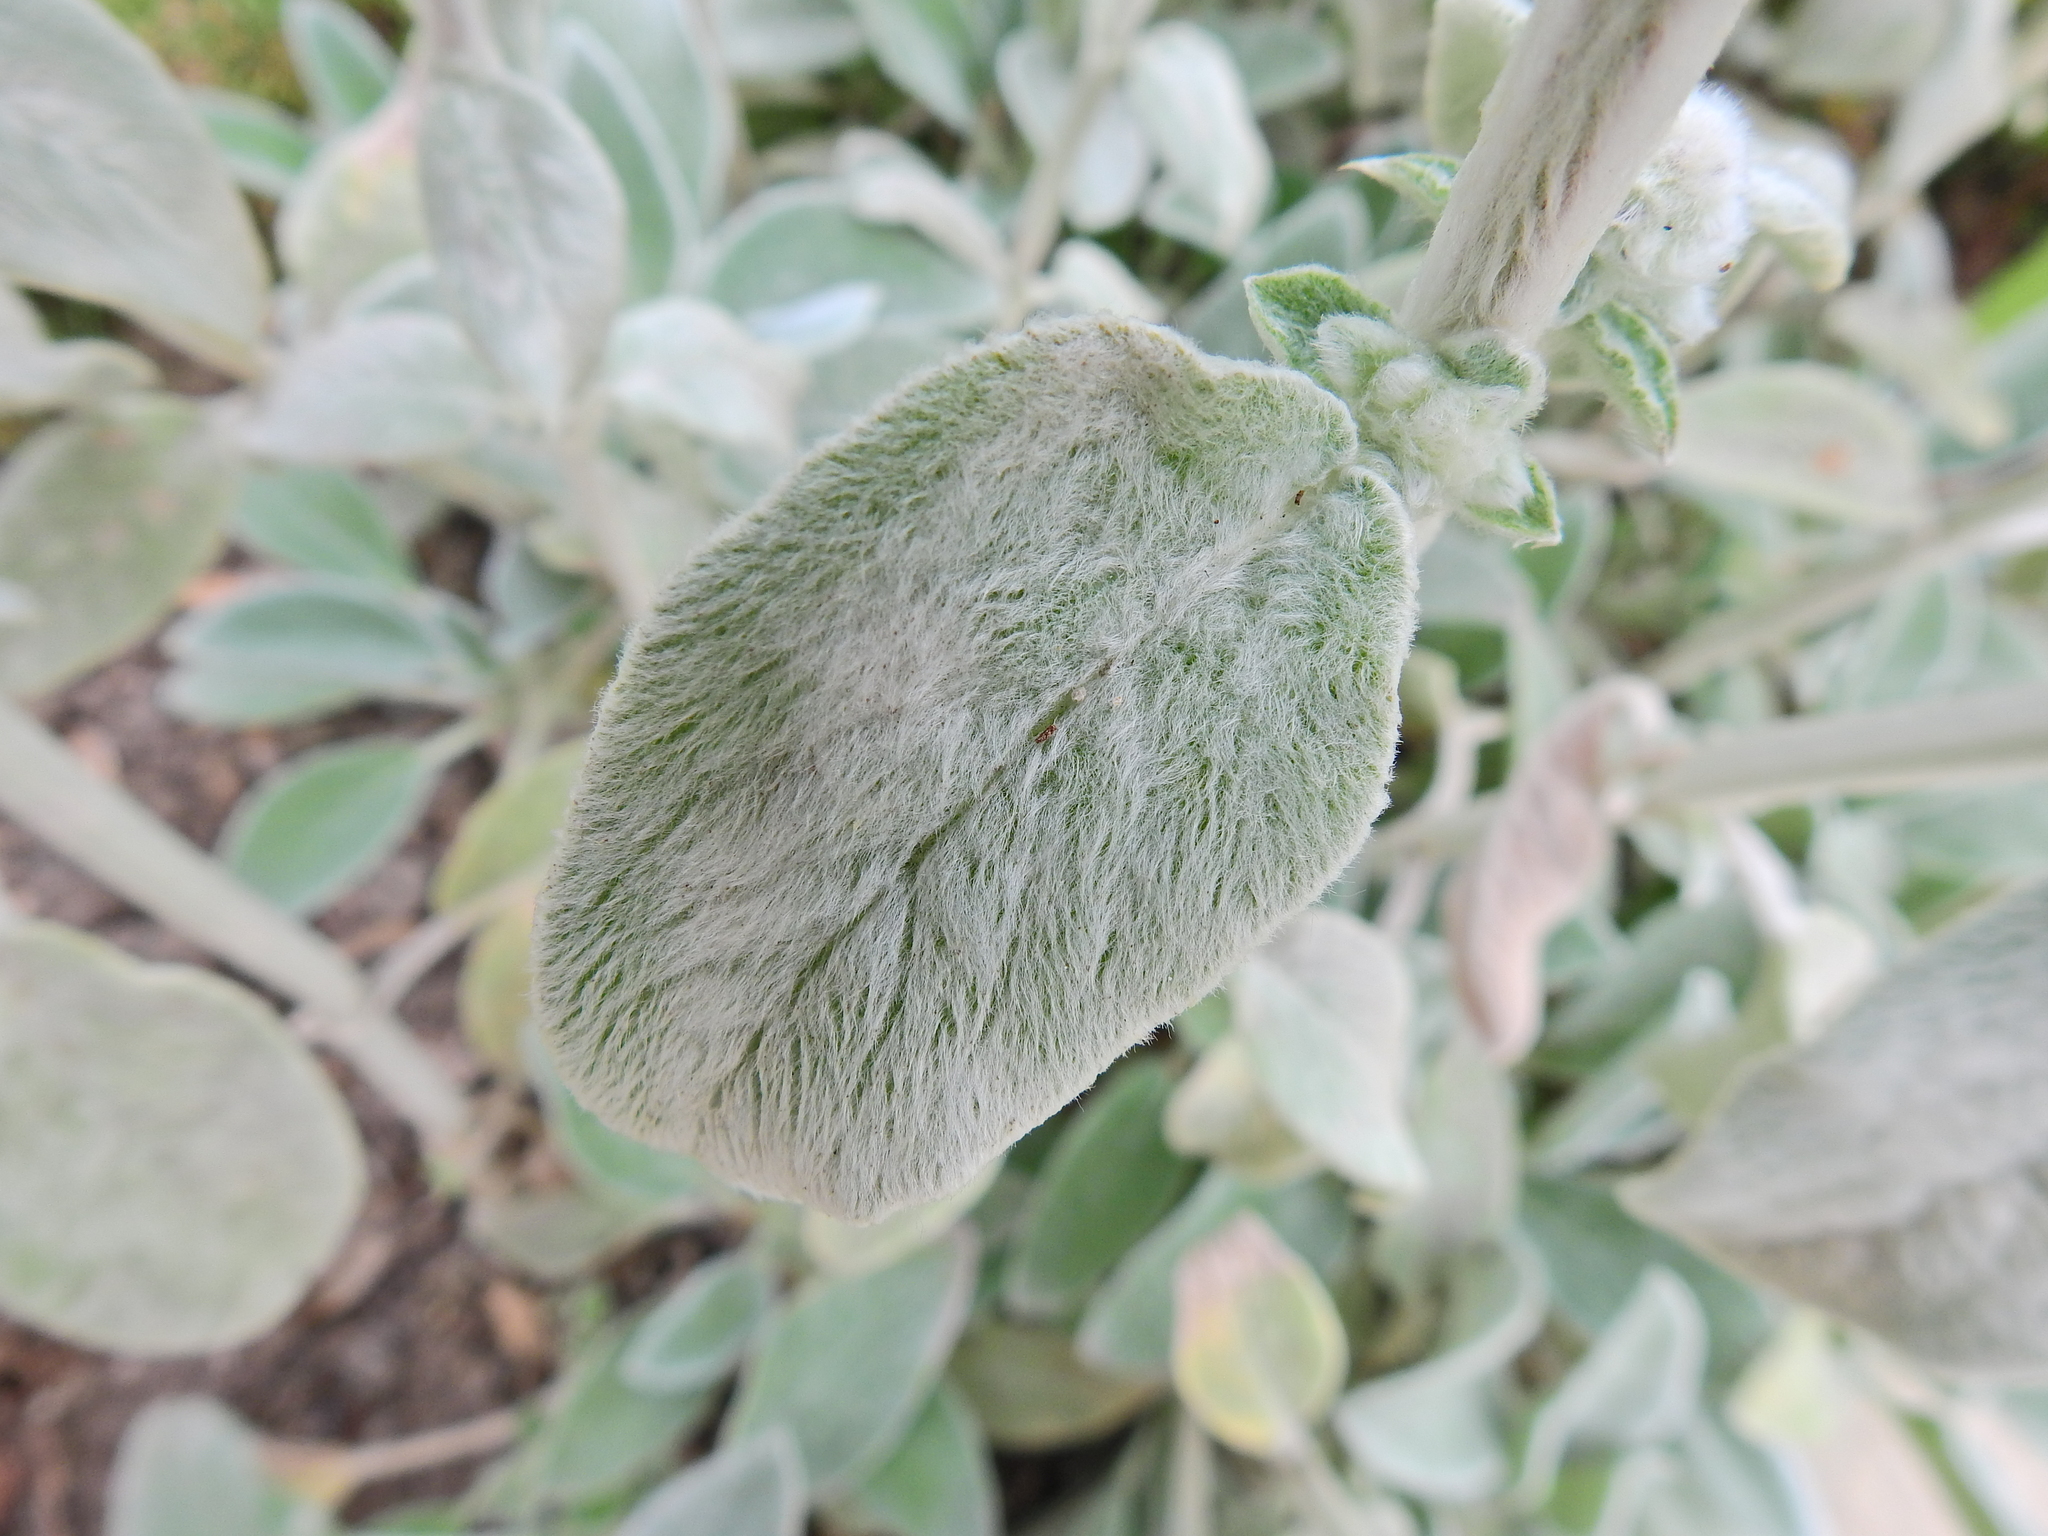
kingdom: Fungi
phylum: Ascomycota
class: Leotiomycetes
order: Helotiales
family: Erysiphaceae
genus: Neoerysiphe
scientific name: Neoerysiphe galeopsidis
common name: Mint mildew
